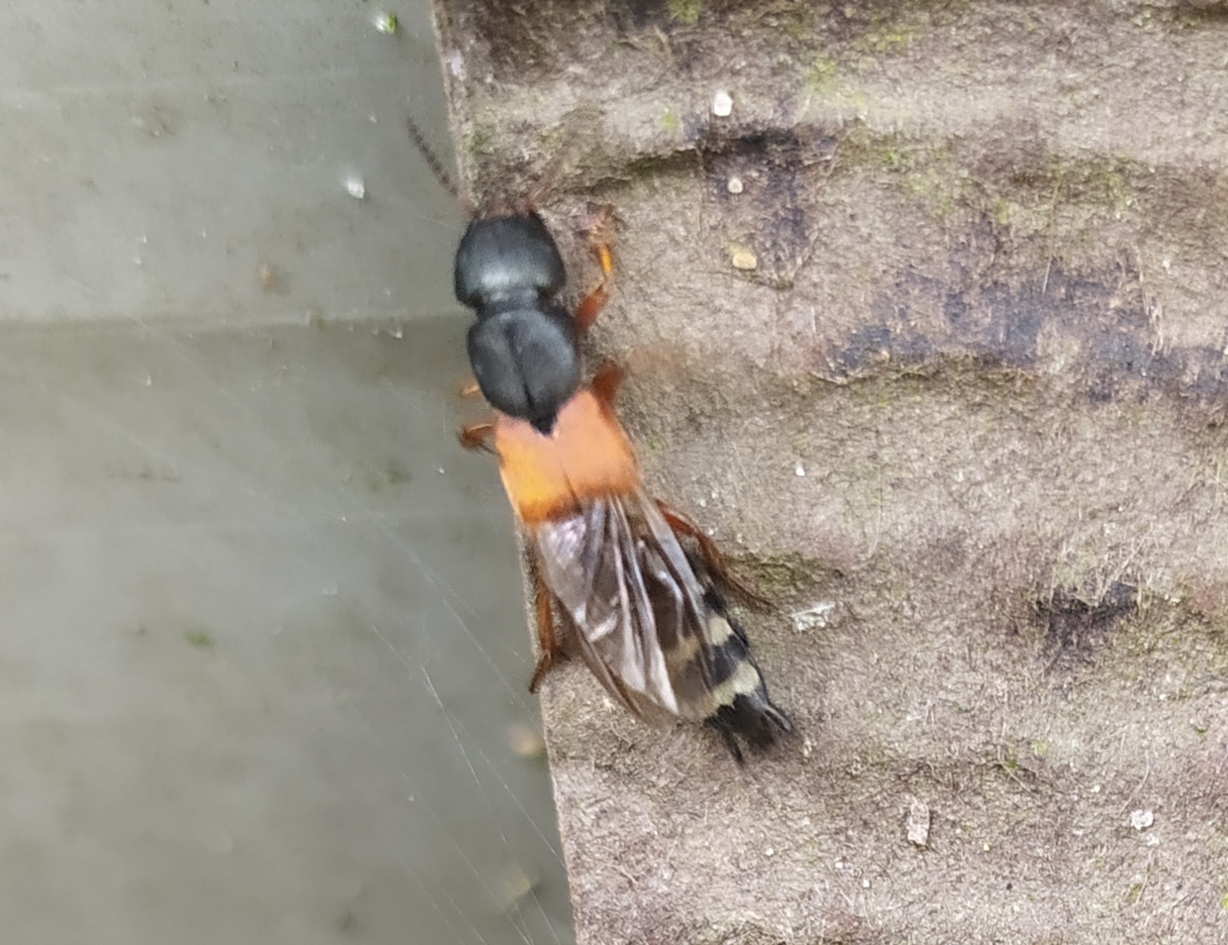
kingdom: Animalia
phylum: Arthropoda
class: Insecta
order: Coleoptera
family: Staphylinidae
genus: Platydracus
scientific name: Platydracus stercorarius
